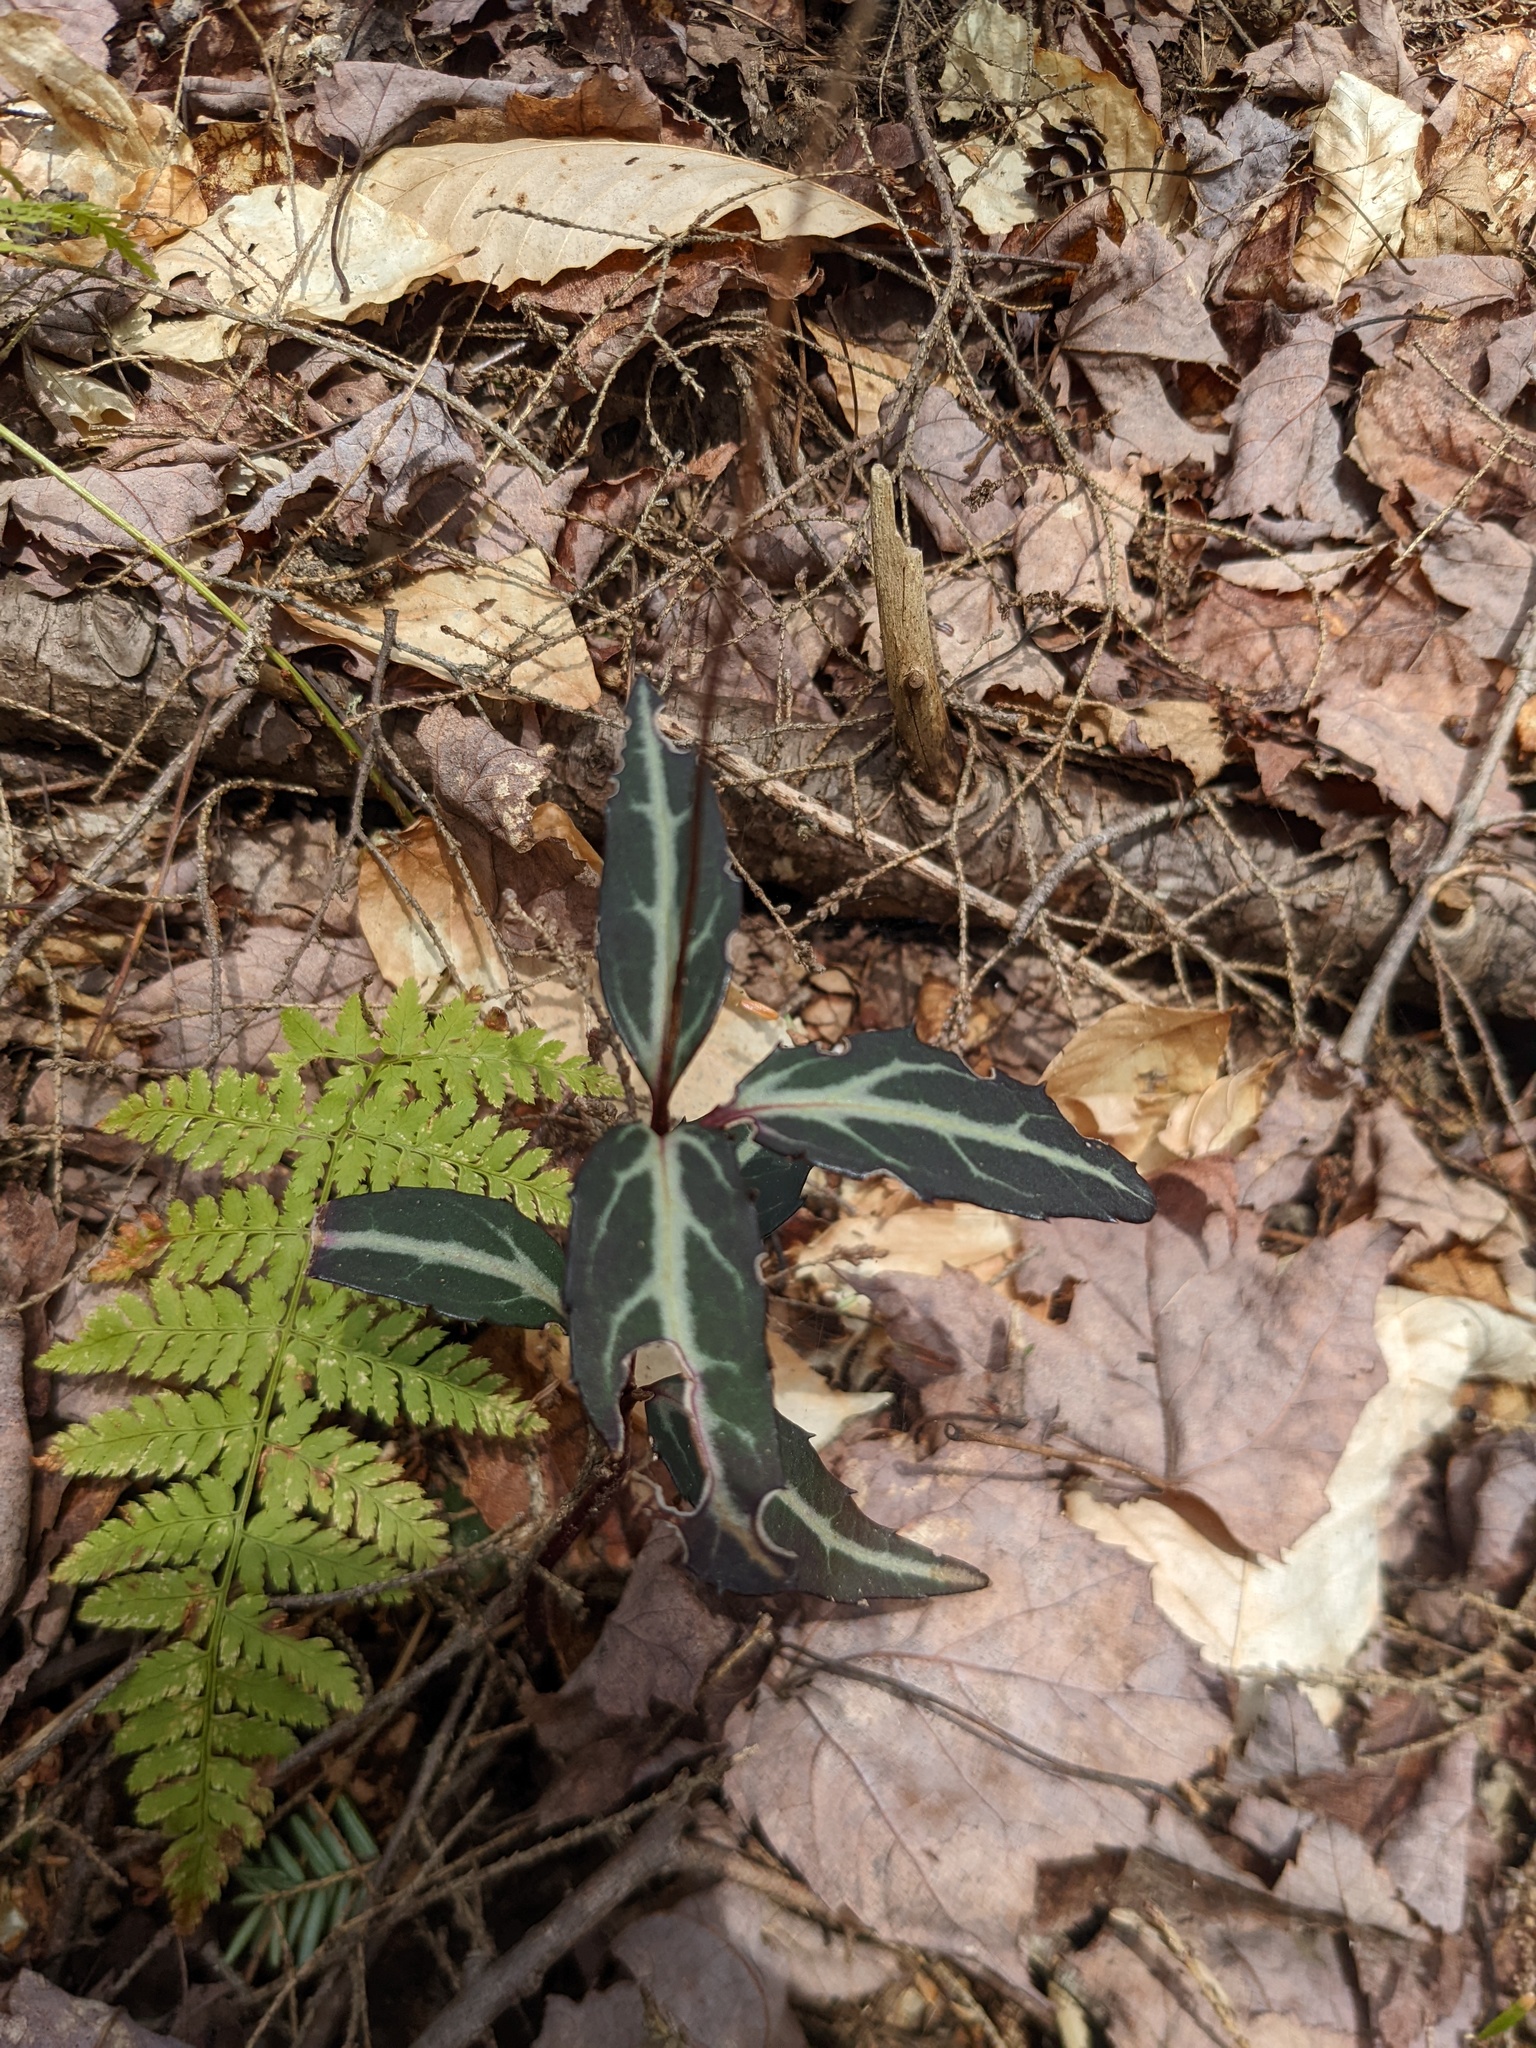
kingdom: Plantae
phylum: Tracheophyta
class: Magnoliopsida
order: Ericales
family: Ericaceae
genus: Chimaphila
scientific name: Chimaphila maculata
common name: Spotted pipsissewa
